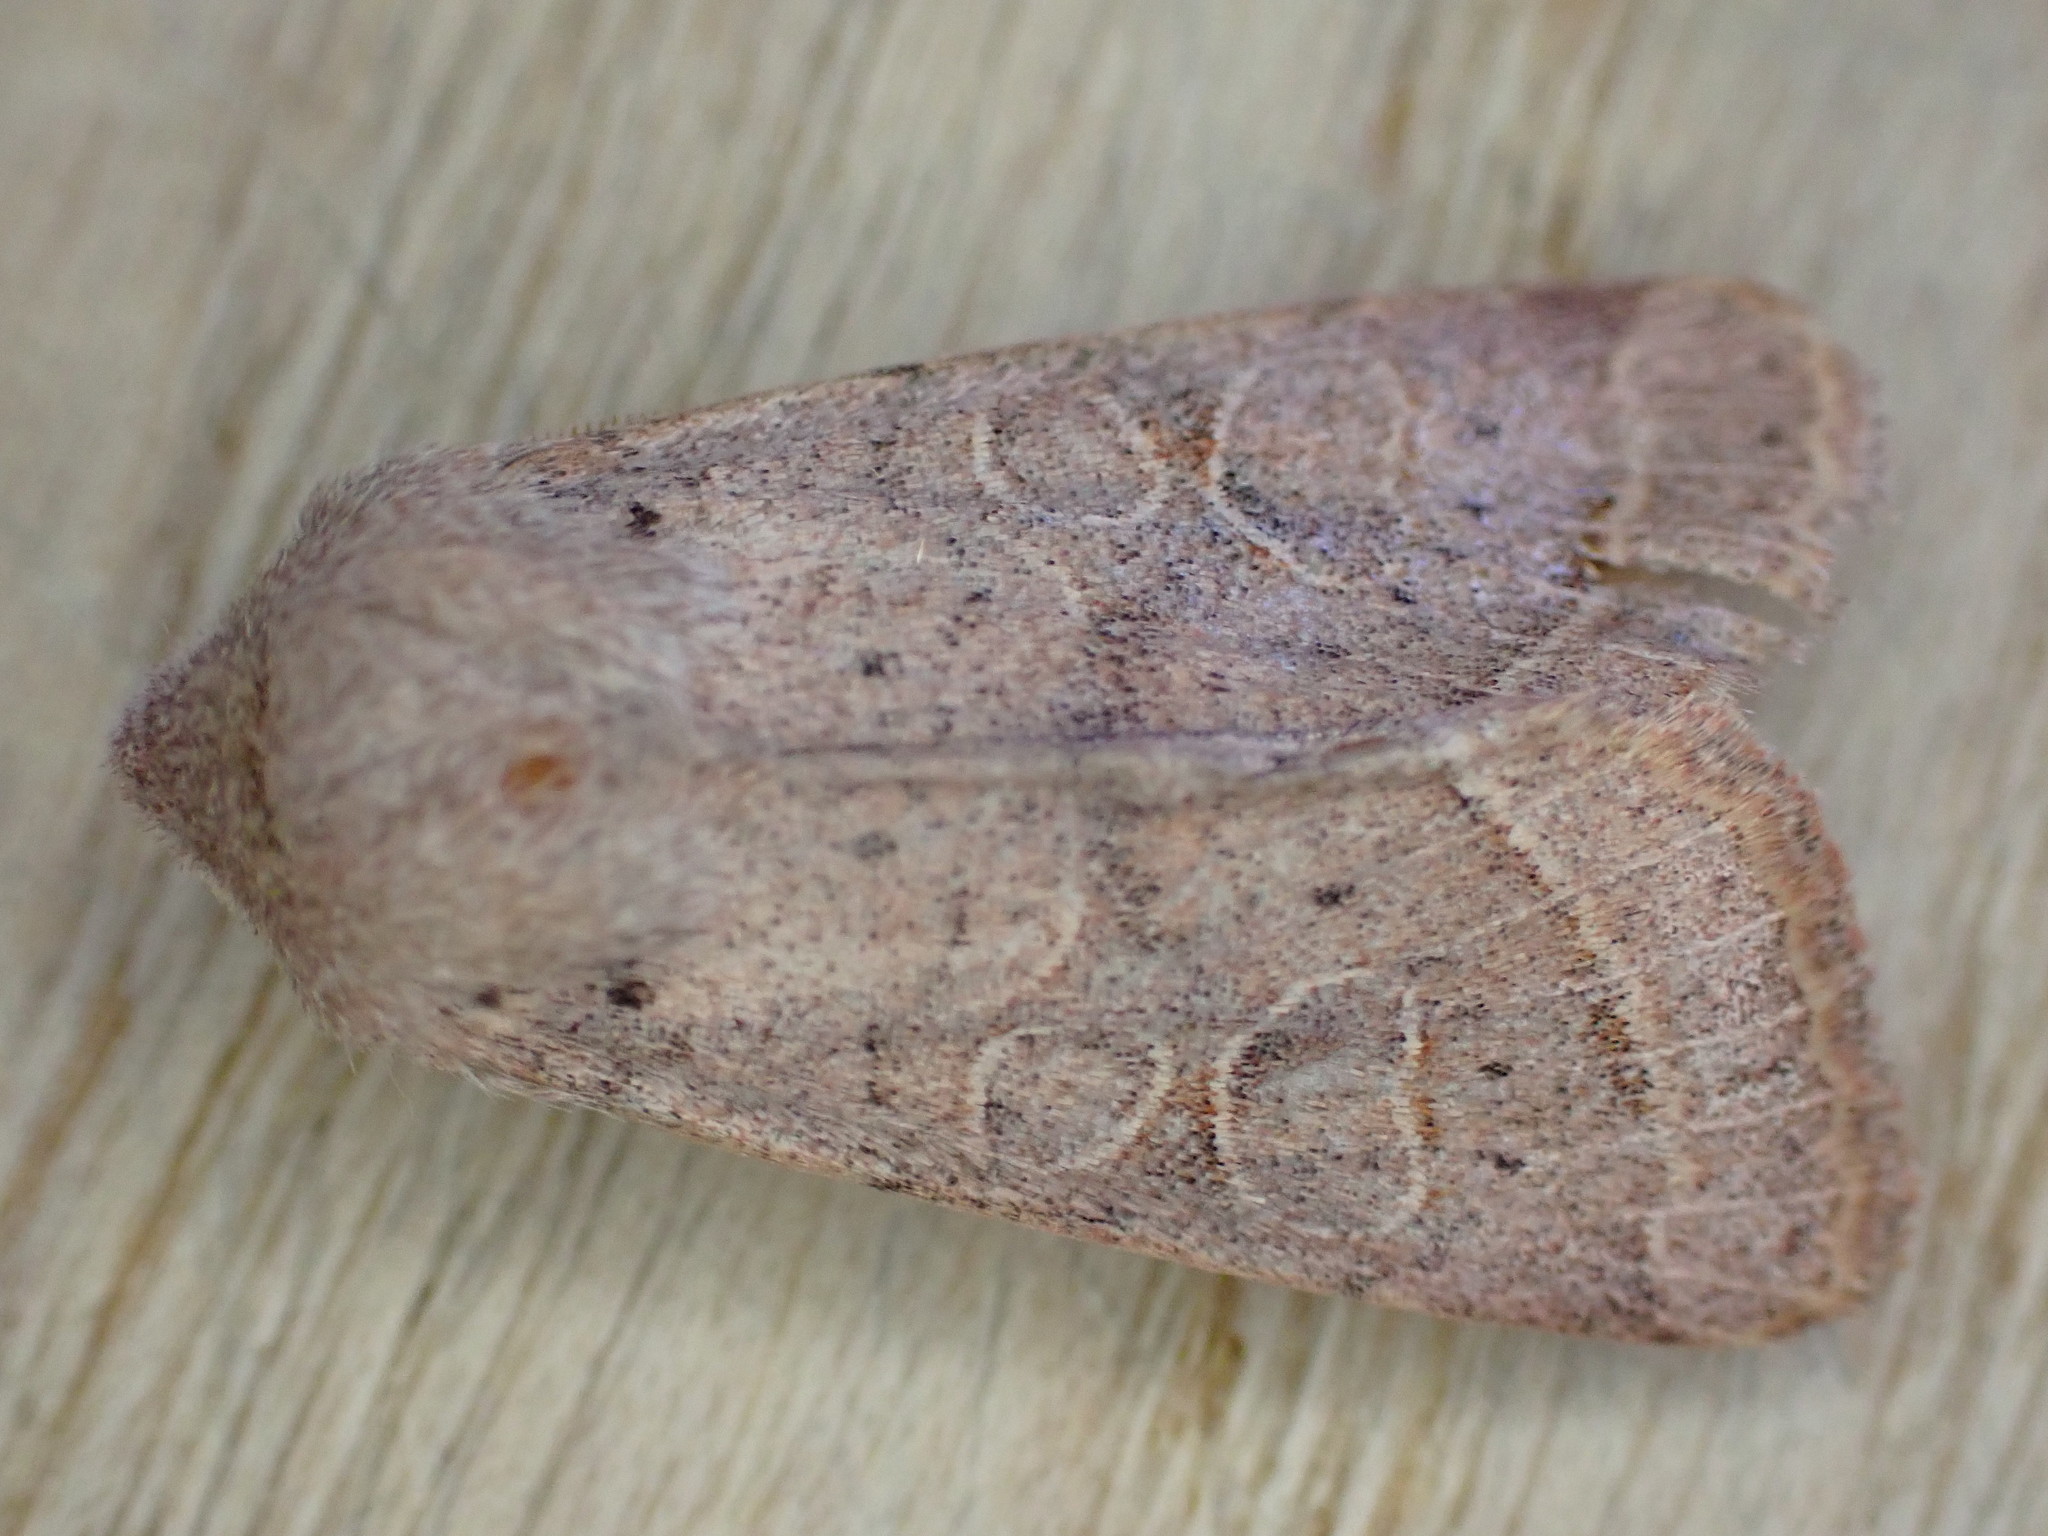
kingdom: Animalia
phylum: Arthropoda
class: Insecta
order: Lepidoptera
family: Noctuidae
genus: Orthosia
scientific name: Orthosia cerasi
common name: Common quaker
